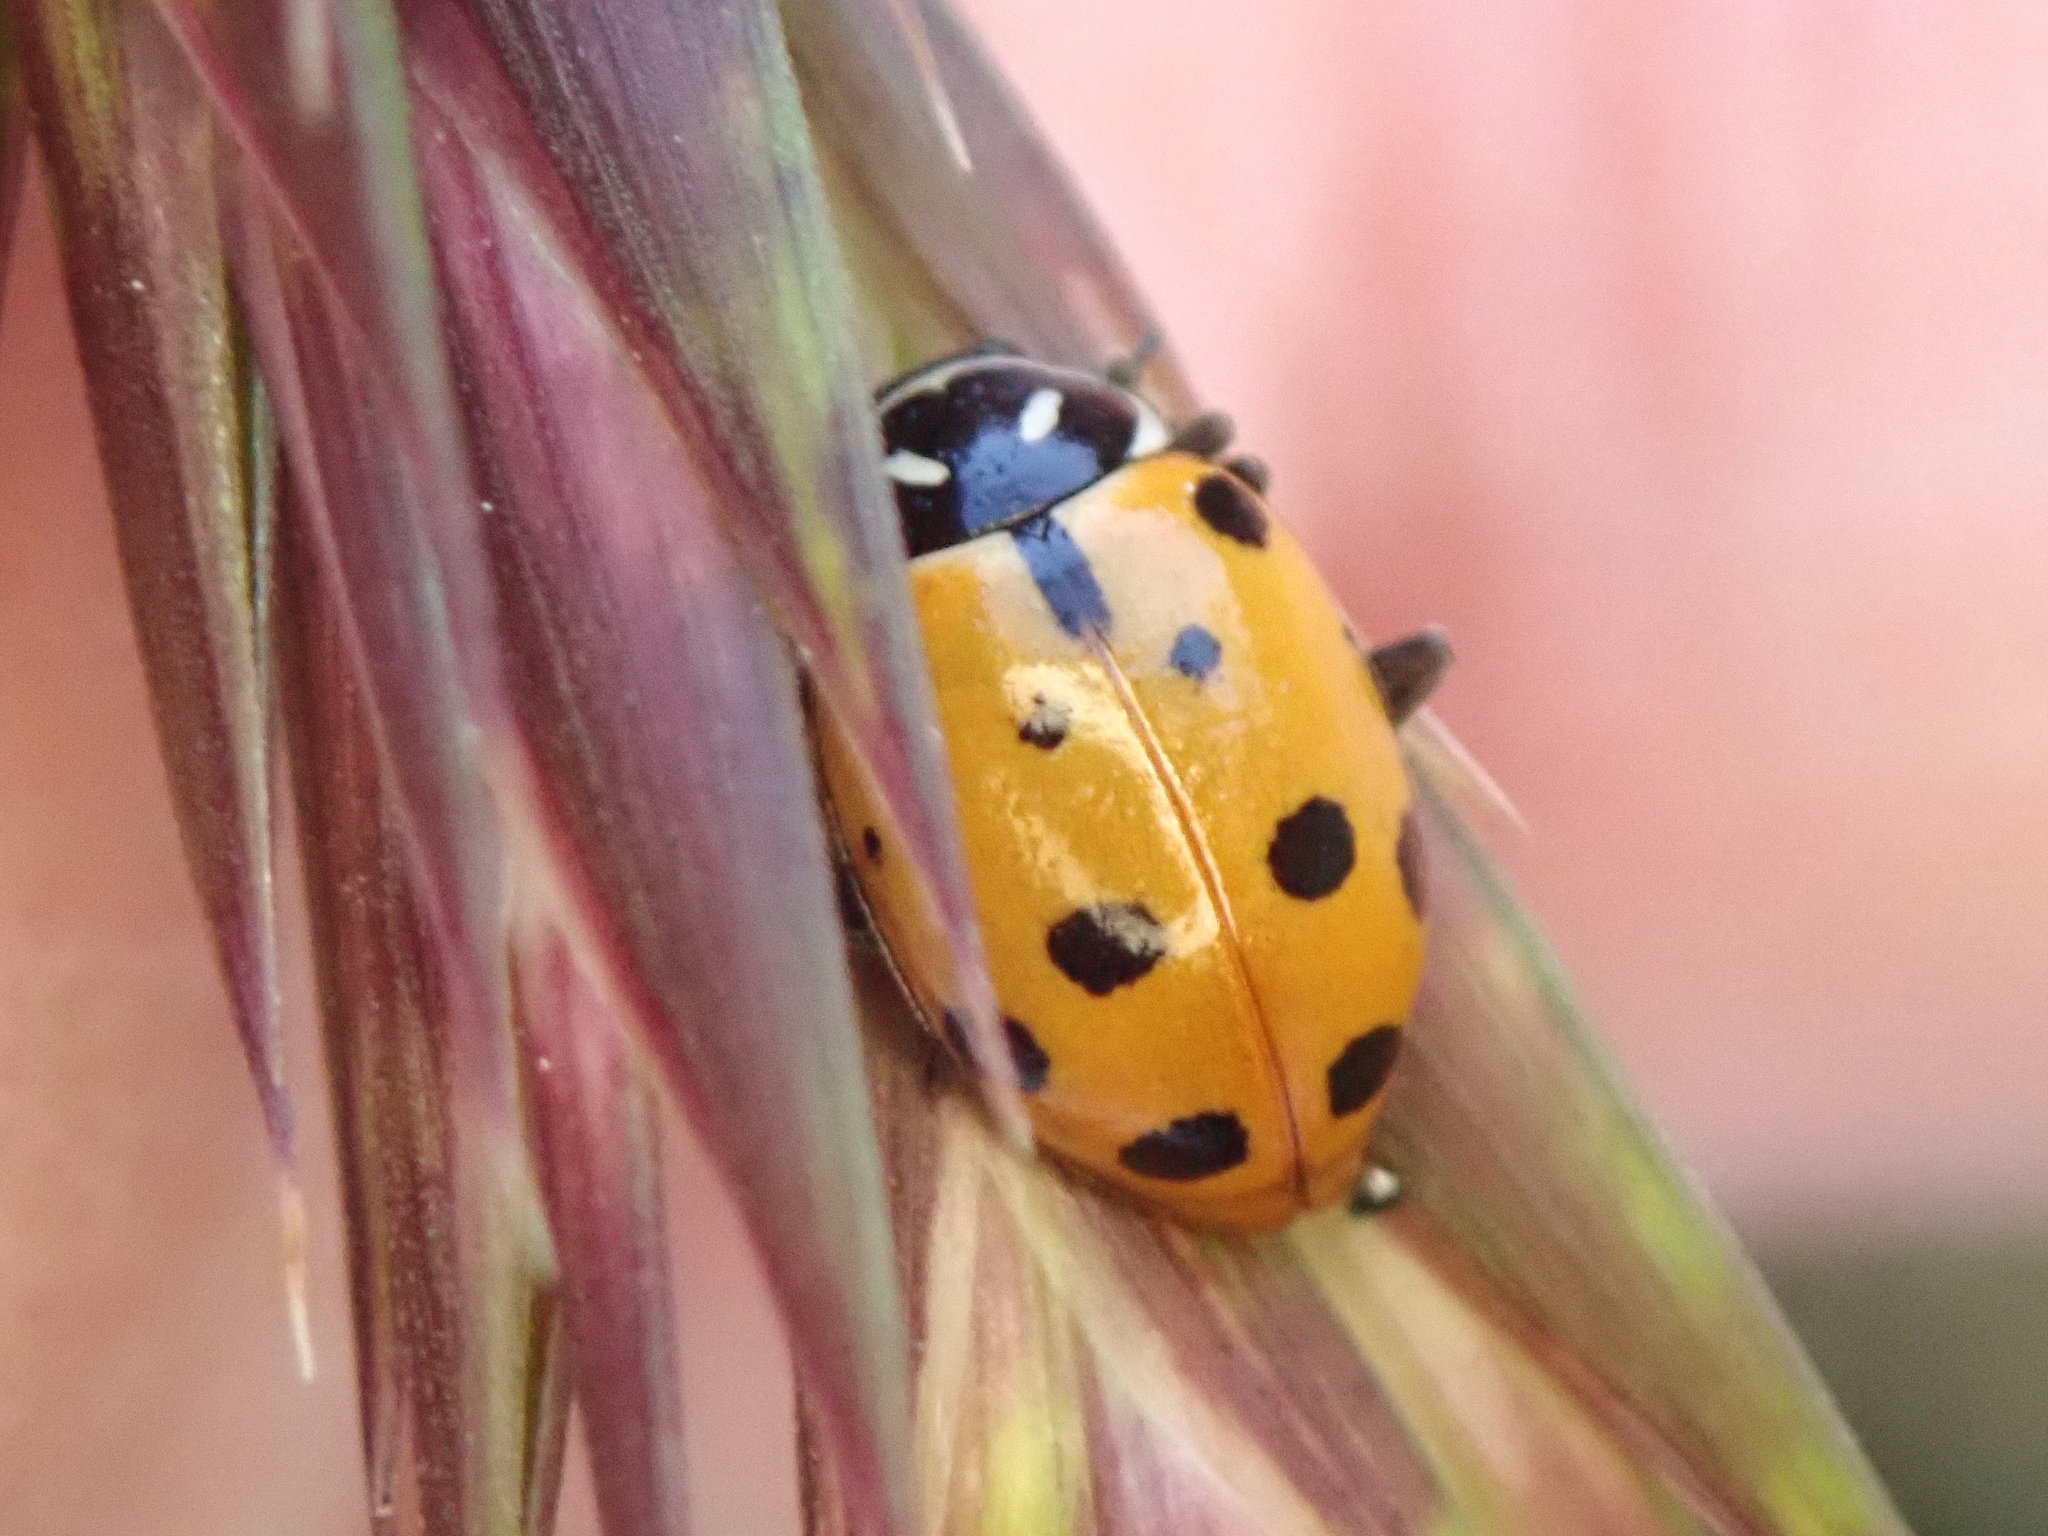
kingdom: Animalia
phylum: Arthropoda
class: Insecta
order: Coleoptera
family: Coccinellidae
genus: Hippodamia
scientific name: Hippodamia convergens
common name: Convergent lady beetle
